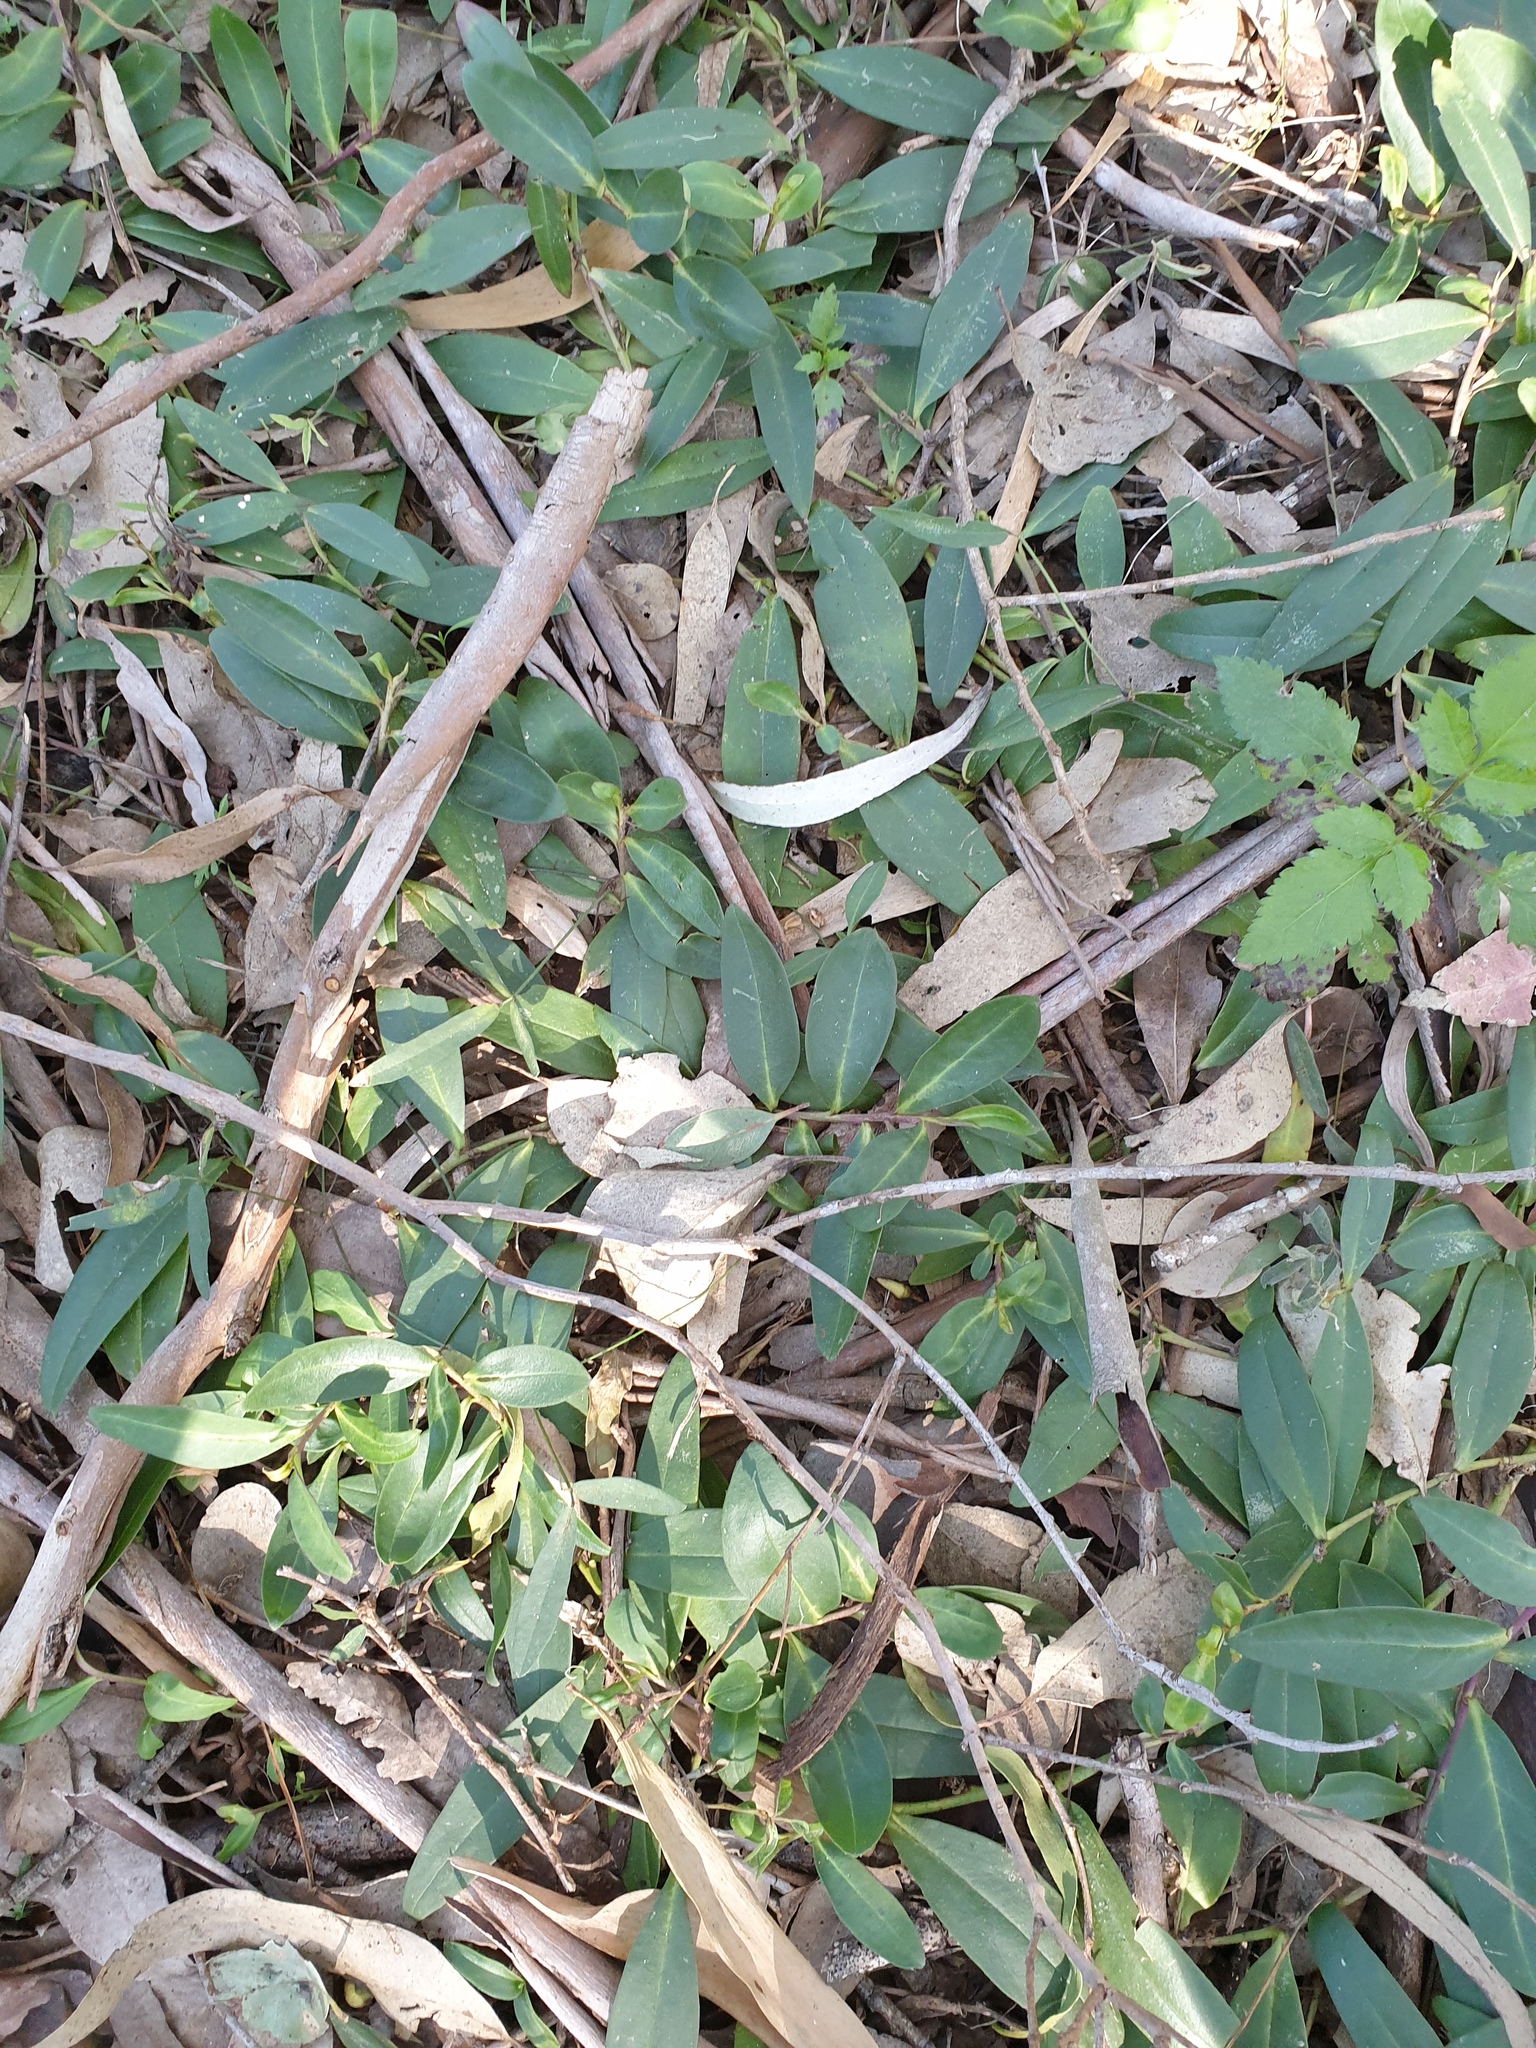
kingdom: Plantae
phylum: Tracheophyta
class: Magnoliopsida
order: Lamiales
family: Scrophulariaceae
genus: Eremophila
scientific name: Eremophila debilis
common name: Winter-apple
